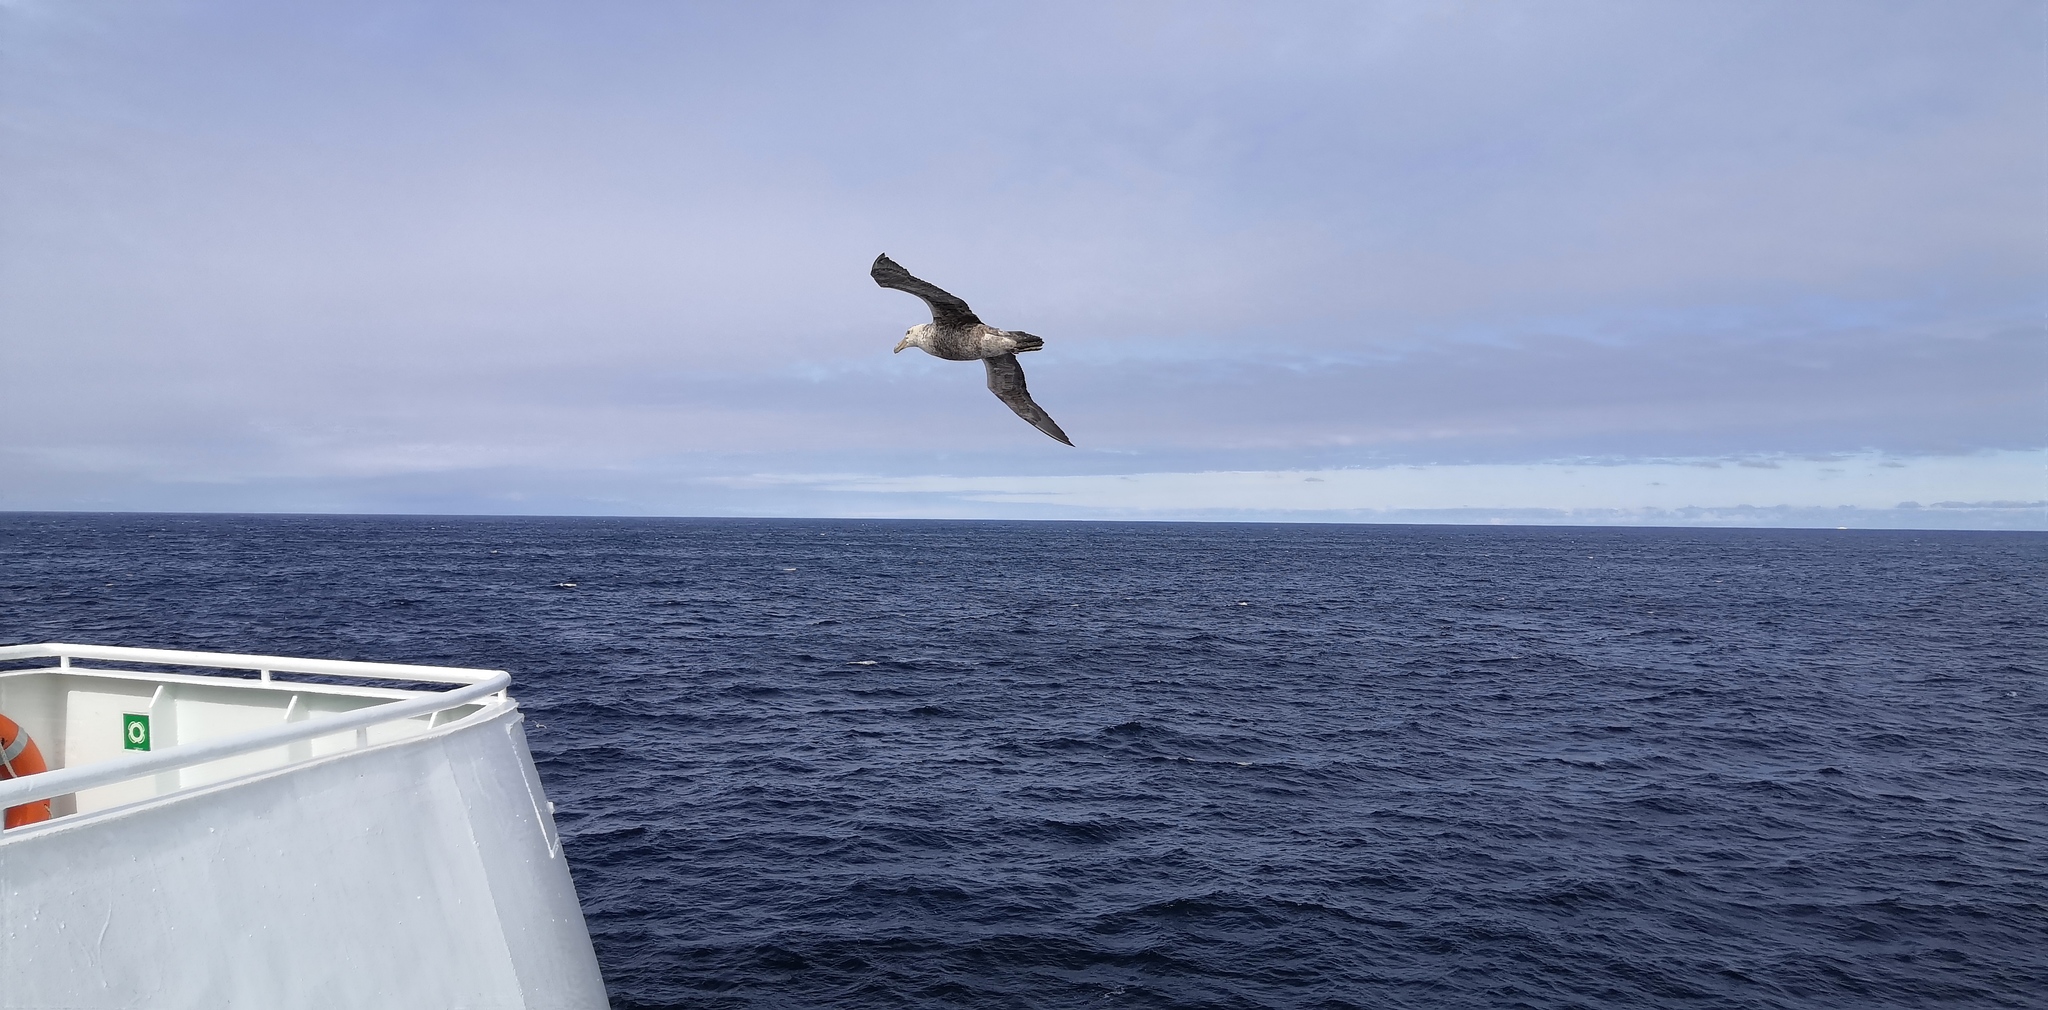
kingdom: Animalia
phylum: Chordata
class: Aves
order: Procellariiformes
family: Procellariidae
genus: Macronectes
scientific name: Macronectes giganteus
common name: Southern giant petrel
